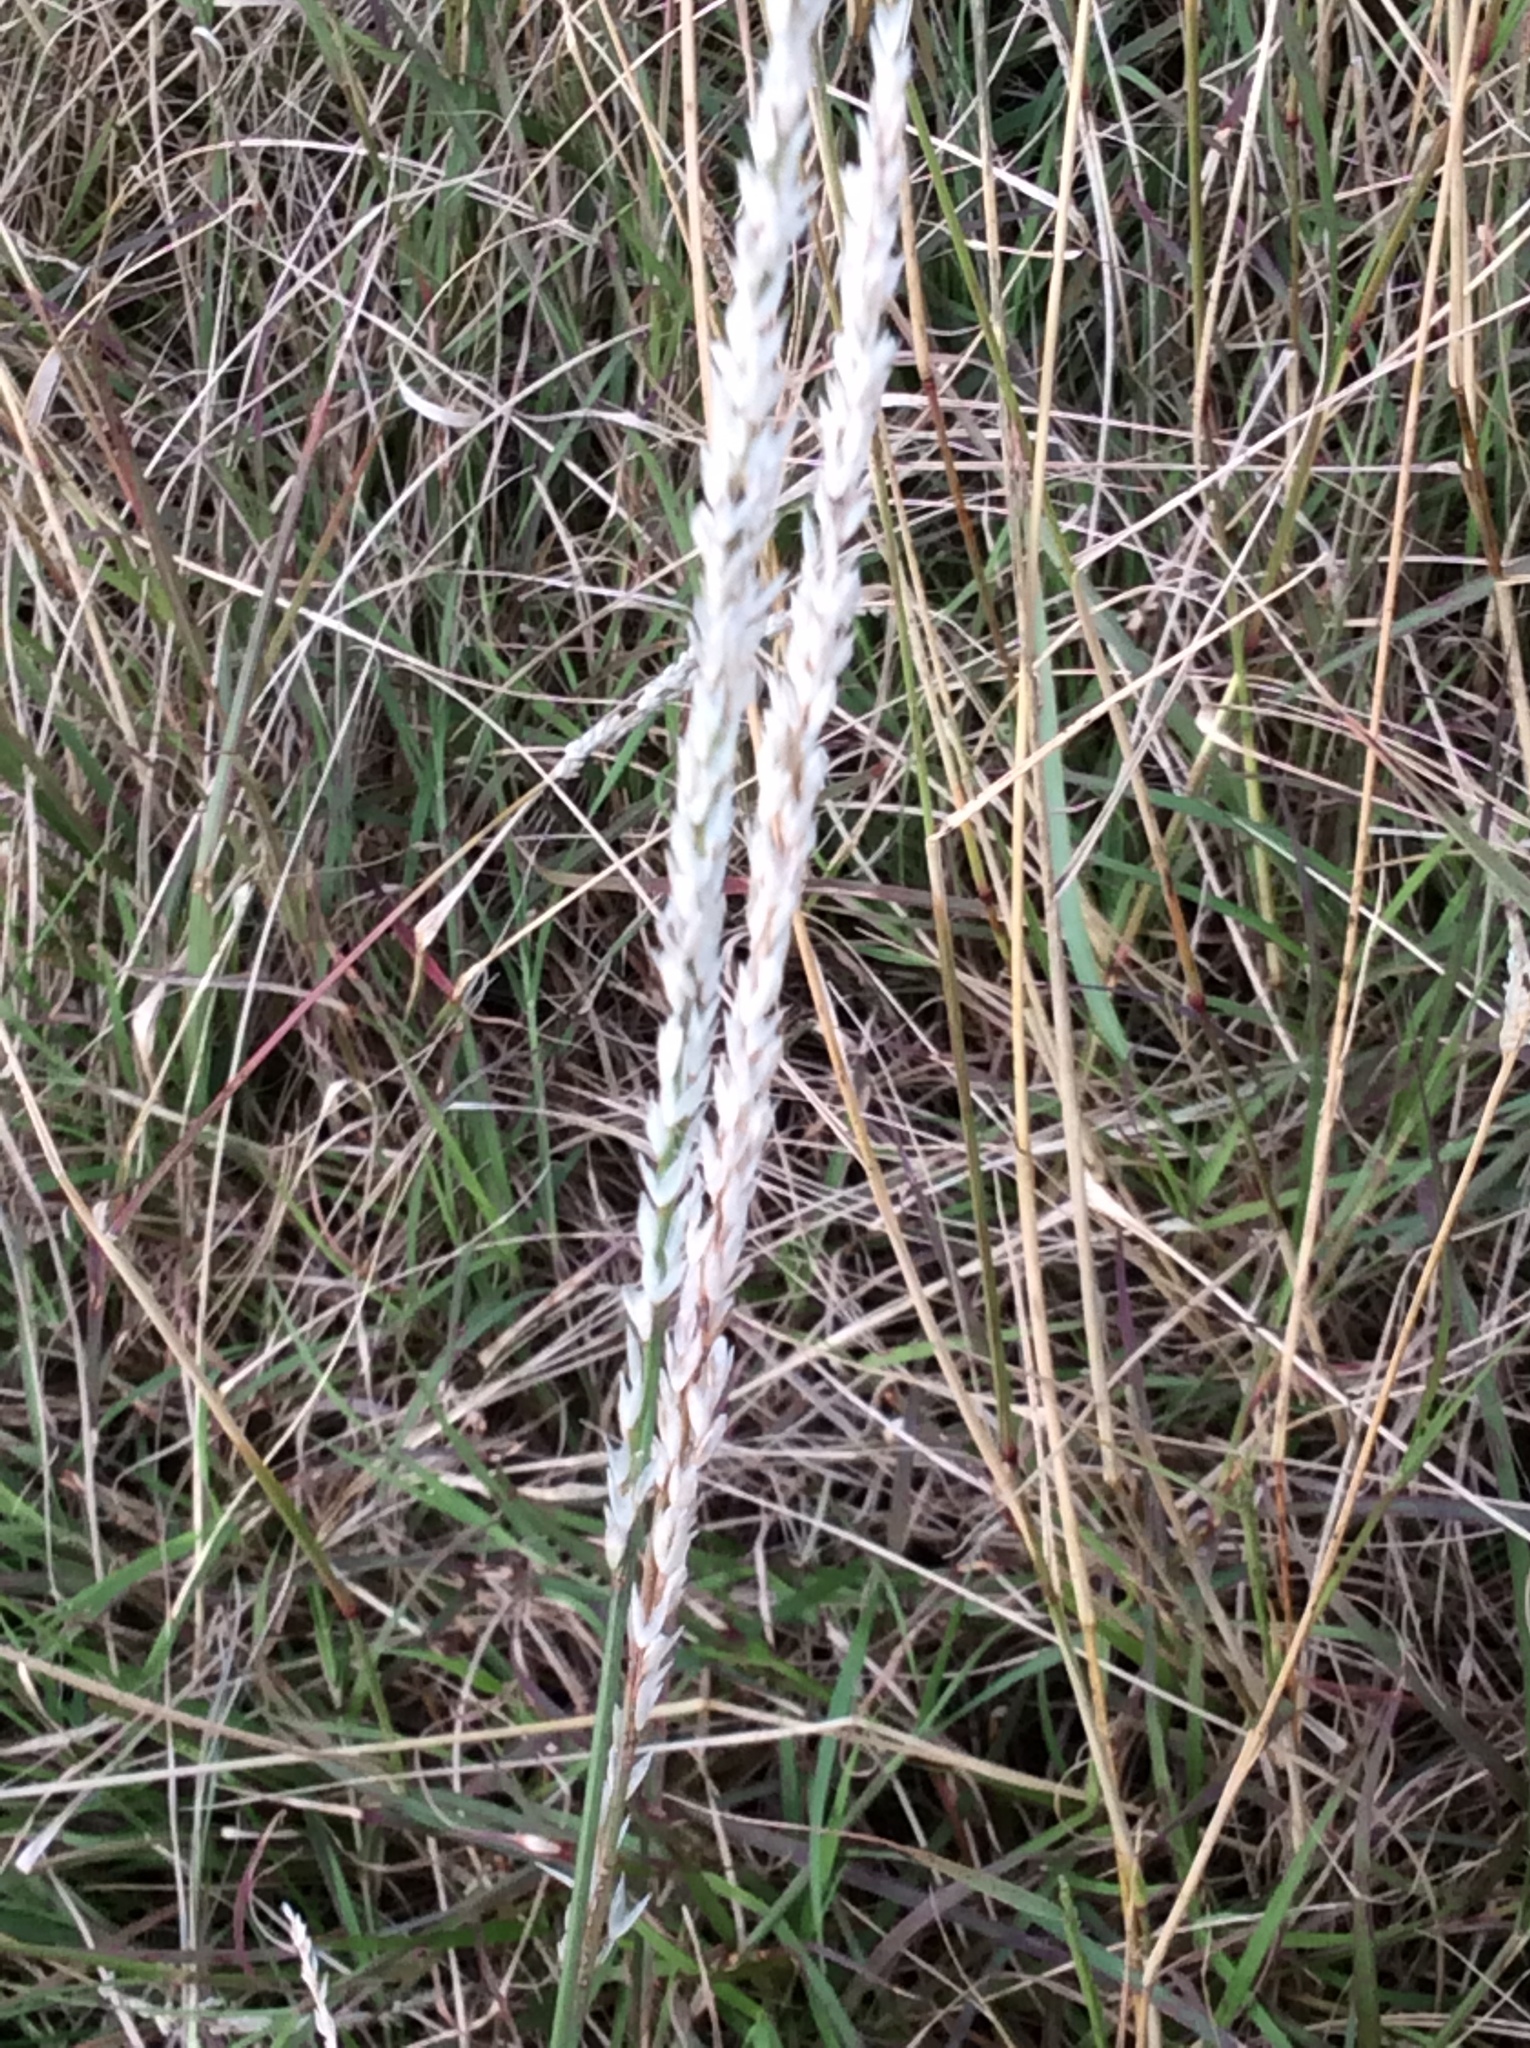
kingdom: Plantae
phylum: Tracheophyta
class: Liliopsida
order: Poales
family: Poaceae
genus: Tridens
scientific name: Tridens albescens
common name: White tridens
